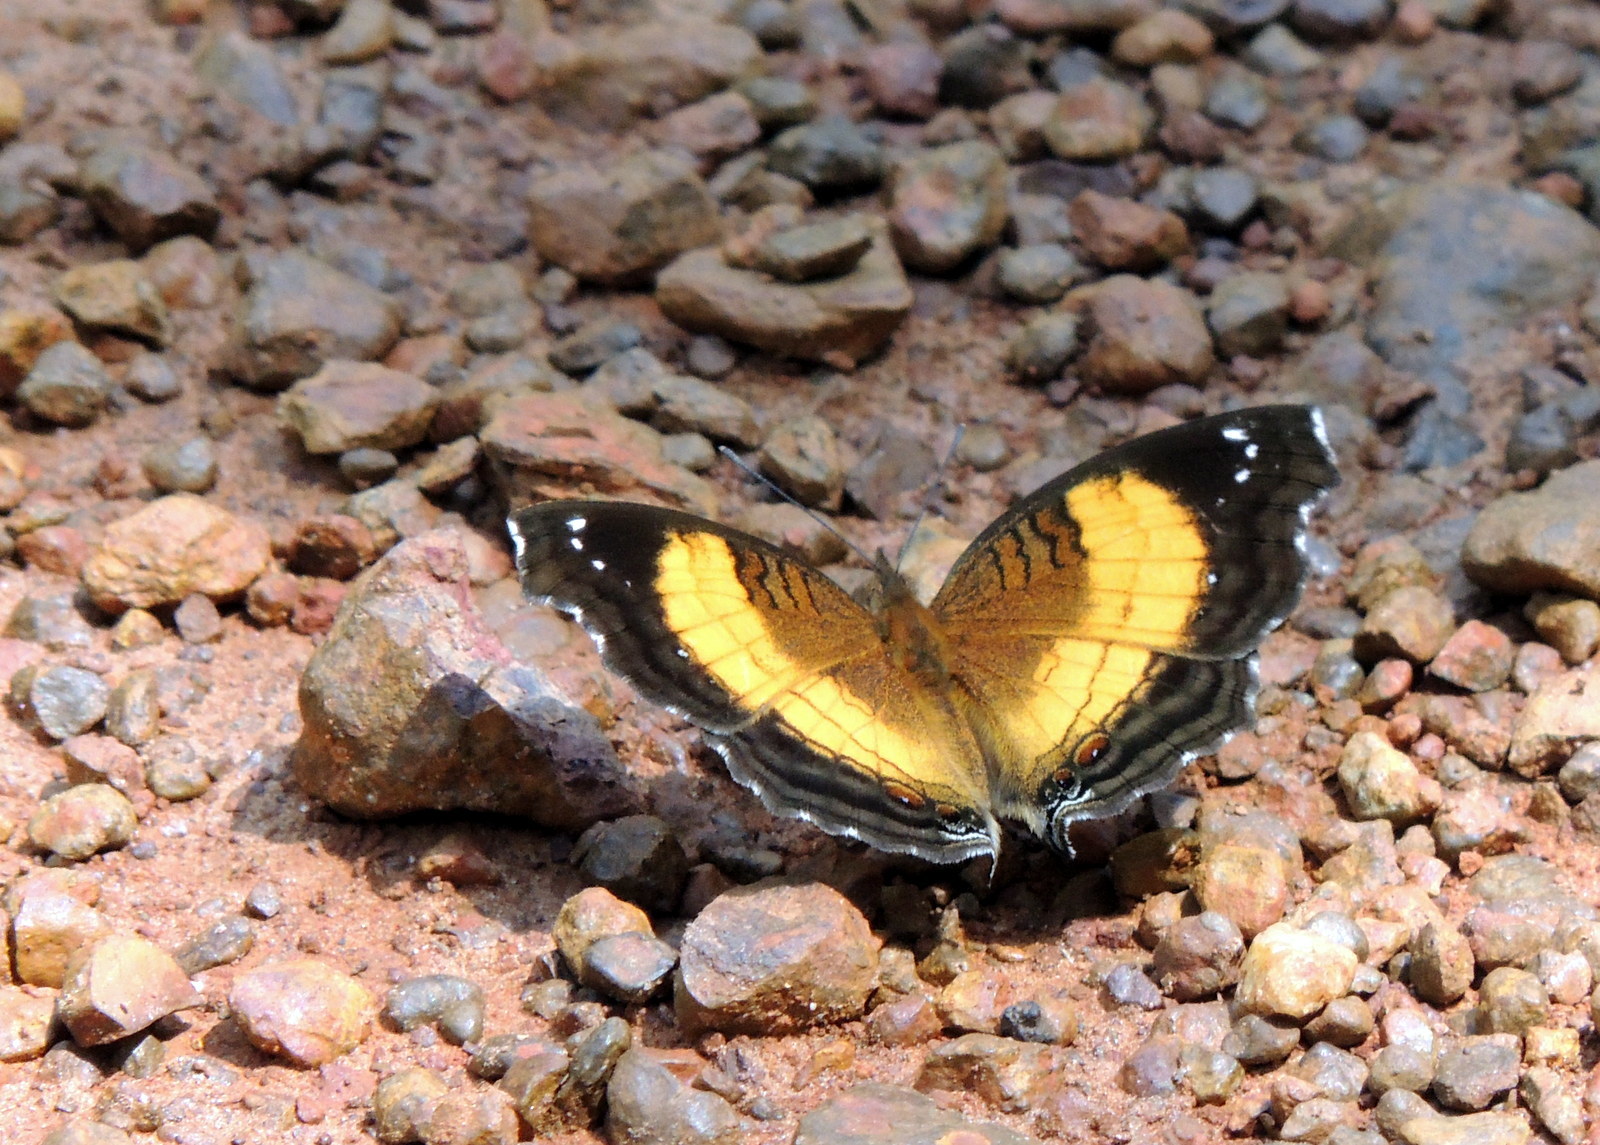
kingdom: Animalia
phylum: Arthropoda
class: Insecta
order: Lepidoptera
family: Nymphalidae
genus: Junonia
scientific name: Junonia terea
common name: Soldier pansy
